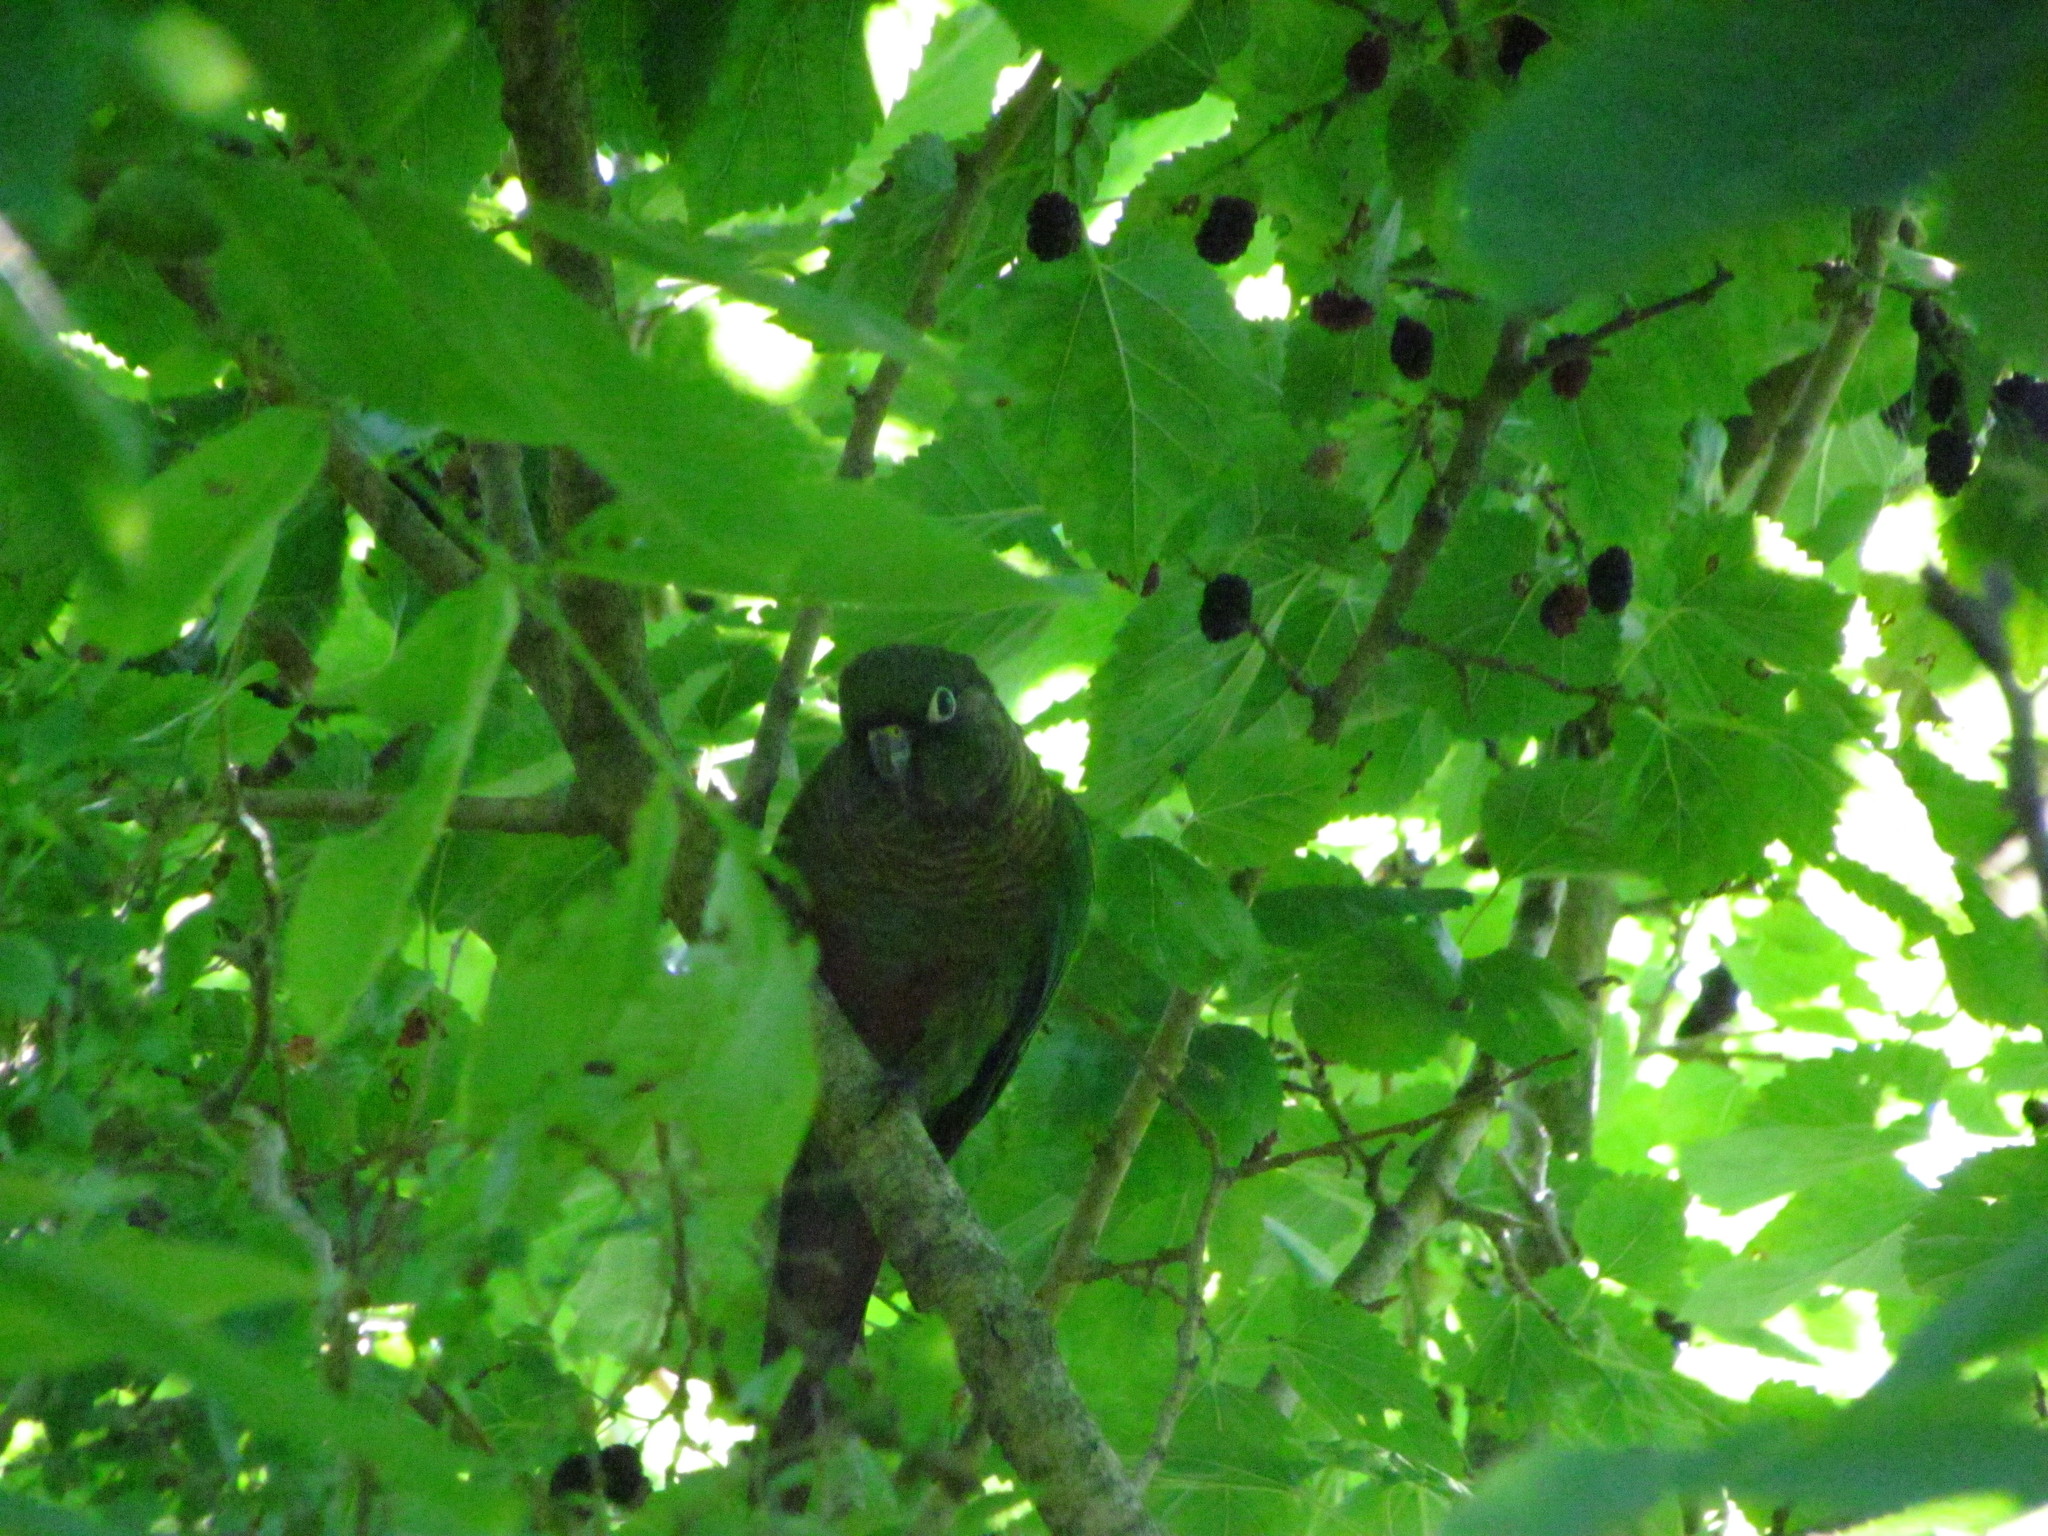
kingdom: Animalia
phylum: Chordata
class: Aves
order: Psittaciformes
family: Psittacidae
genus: Pyrrhura
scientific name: Pyrrhura frontalis
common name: Maroon-bellied parakeet
